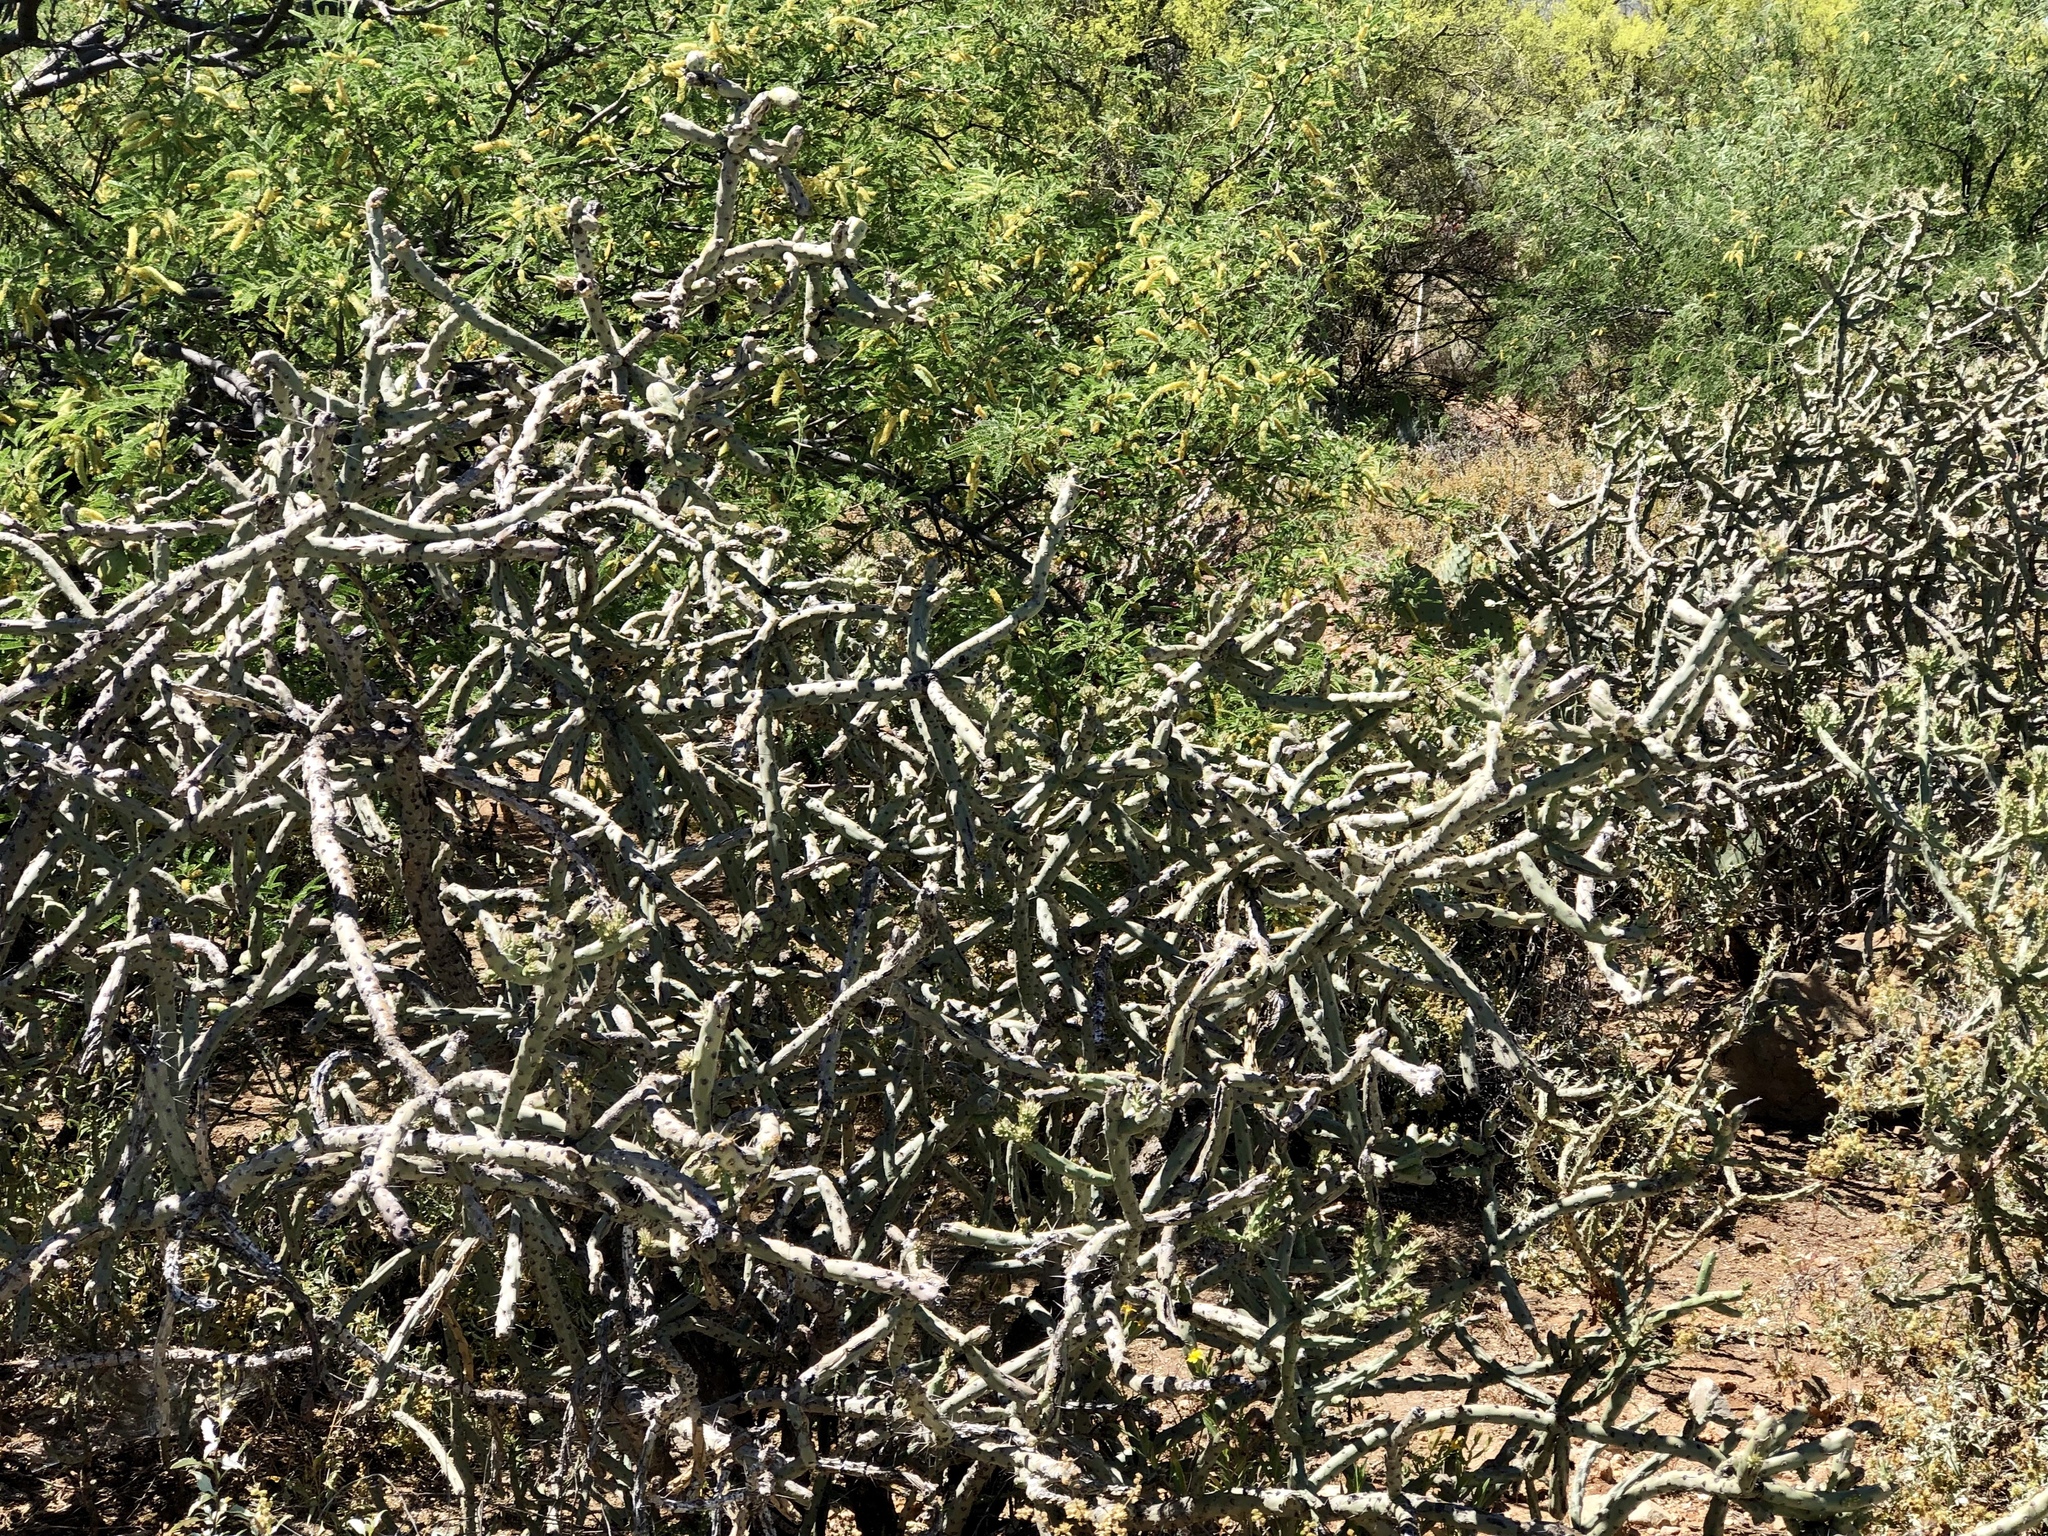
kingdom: Plantae
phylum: Tracheophyta
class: Magnoliopsida
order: Caryophyllales
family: Cactaceae
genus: Cylindropuntia
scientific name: Cylindropuntia arbuscula
